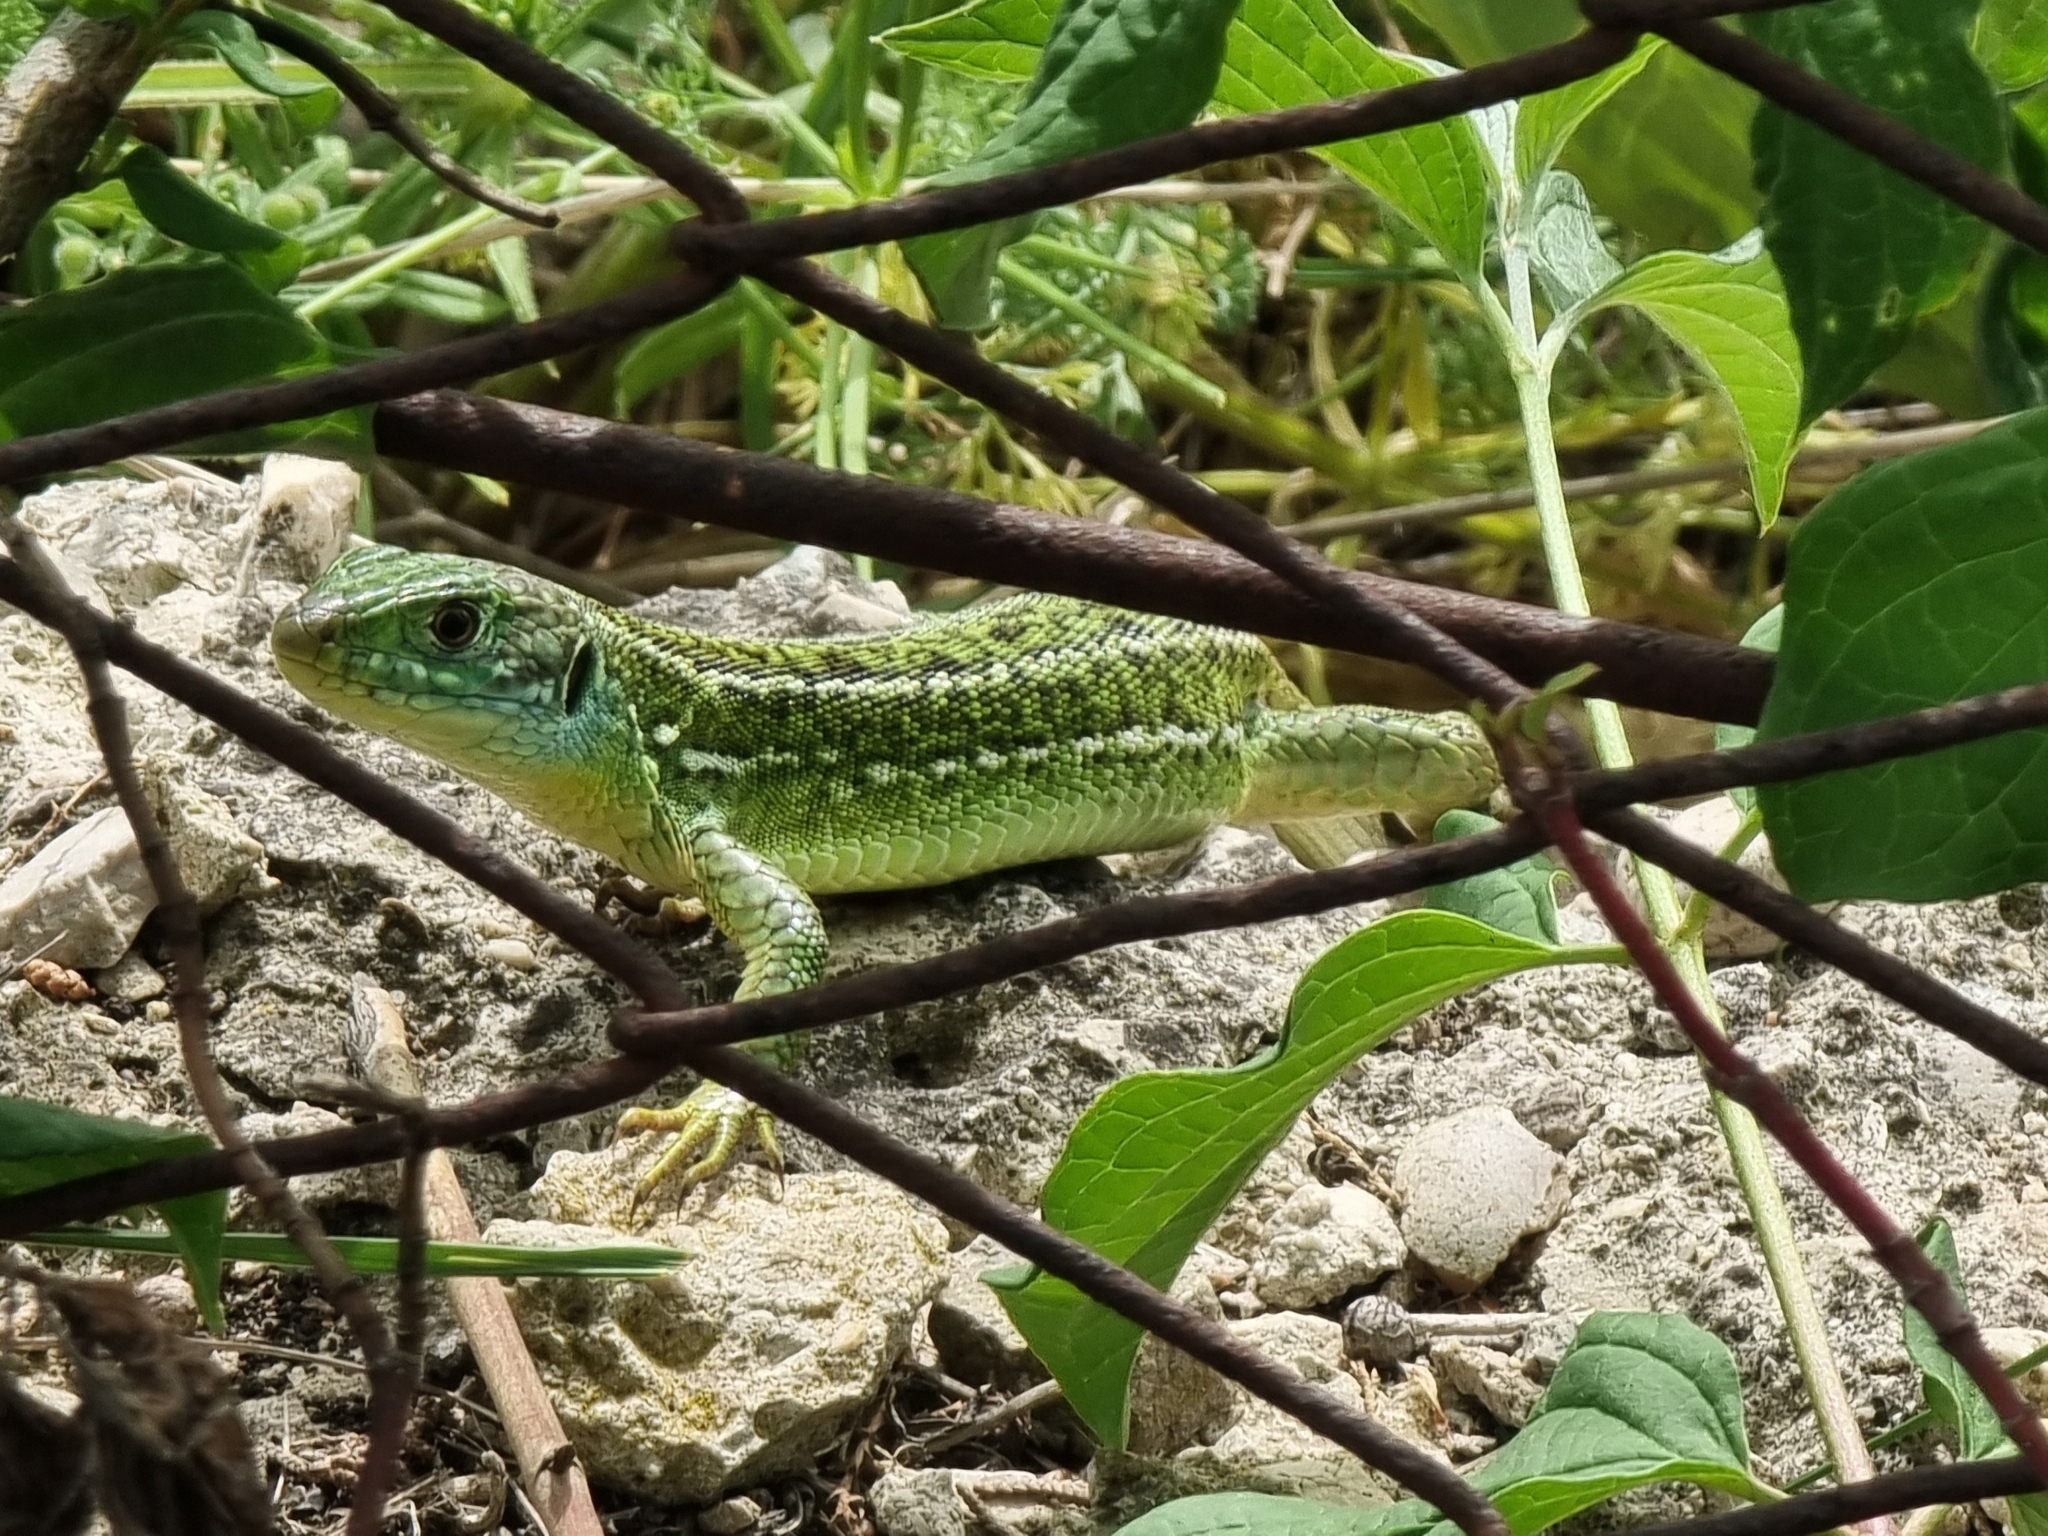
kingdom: Animalia
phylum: Chordata
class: Squamata
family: Lacertidae
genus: Lacerta
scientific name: Lacerta bilineata
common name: Western green lizard
